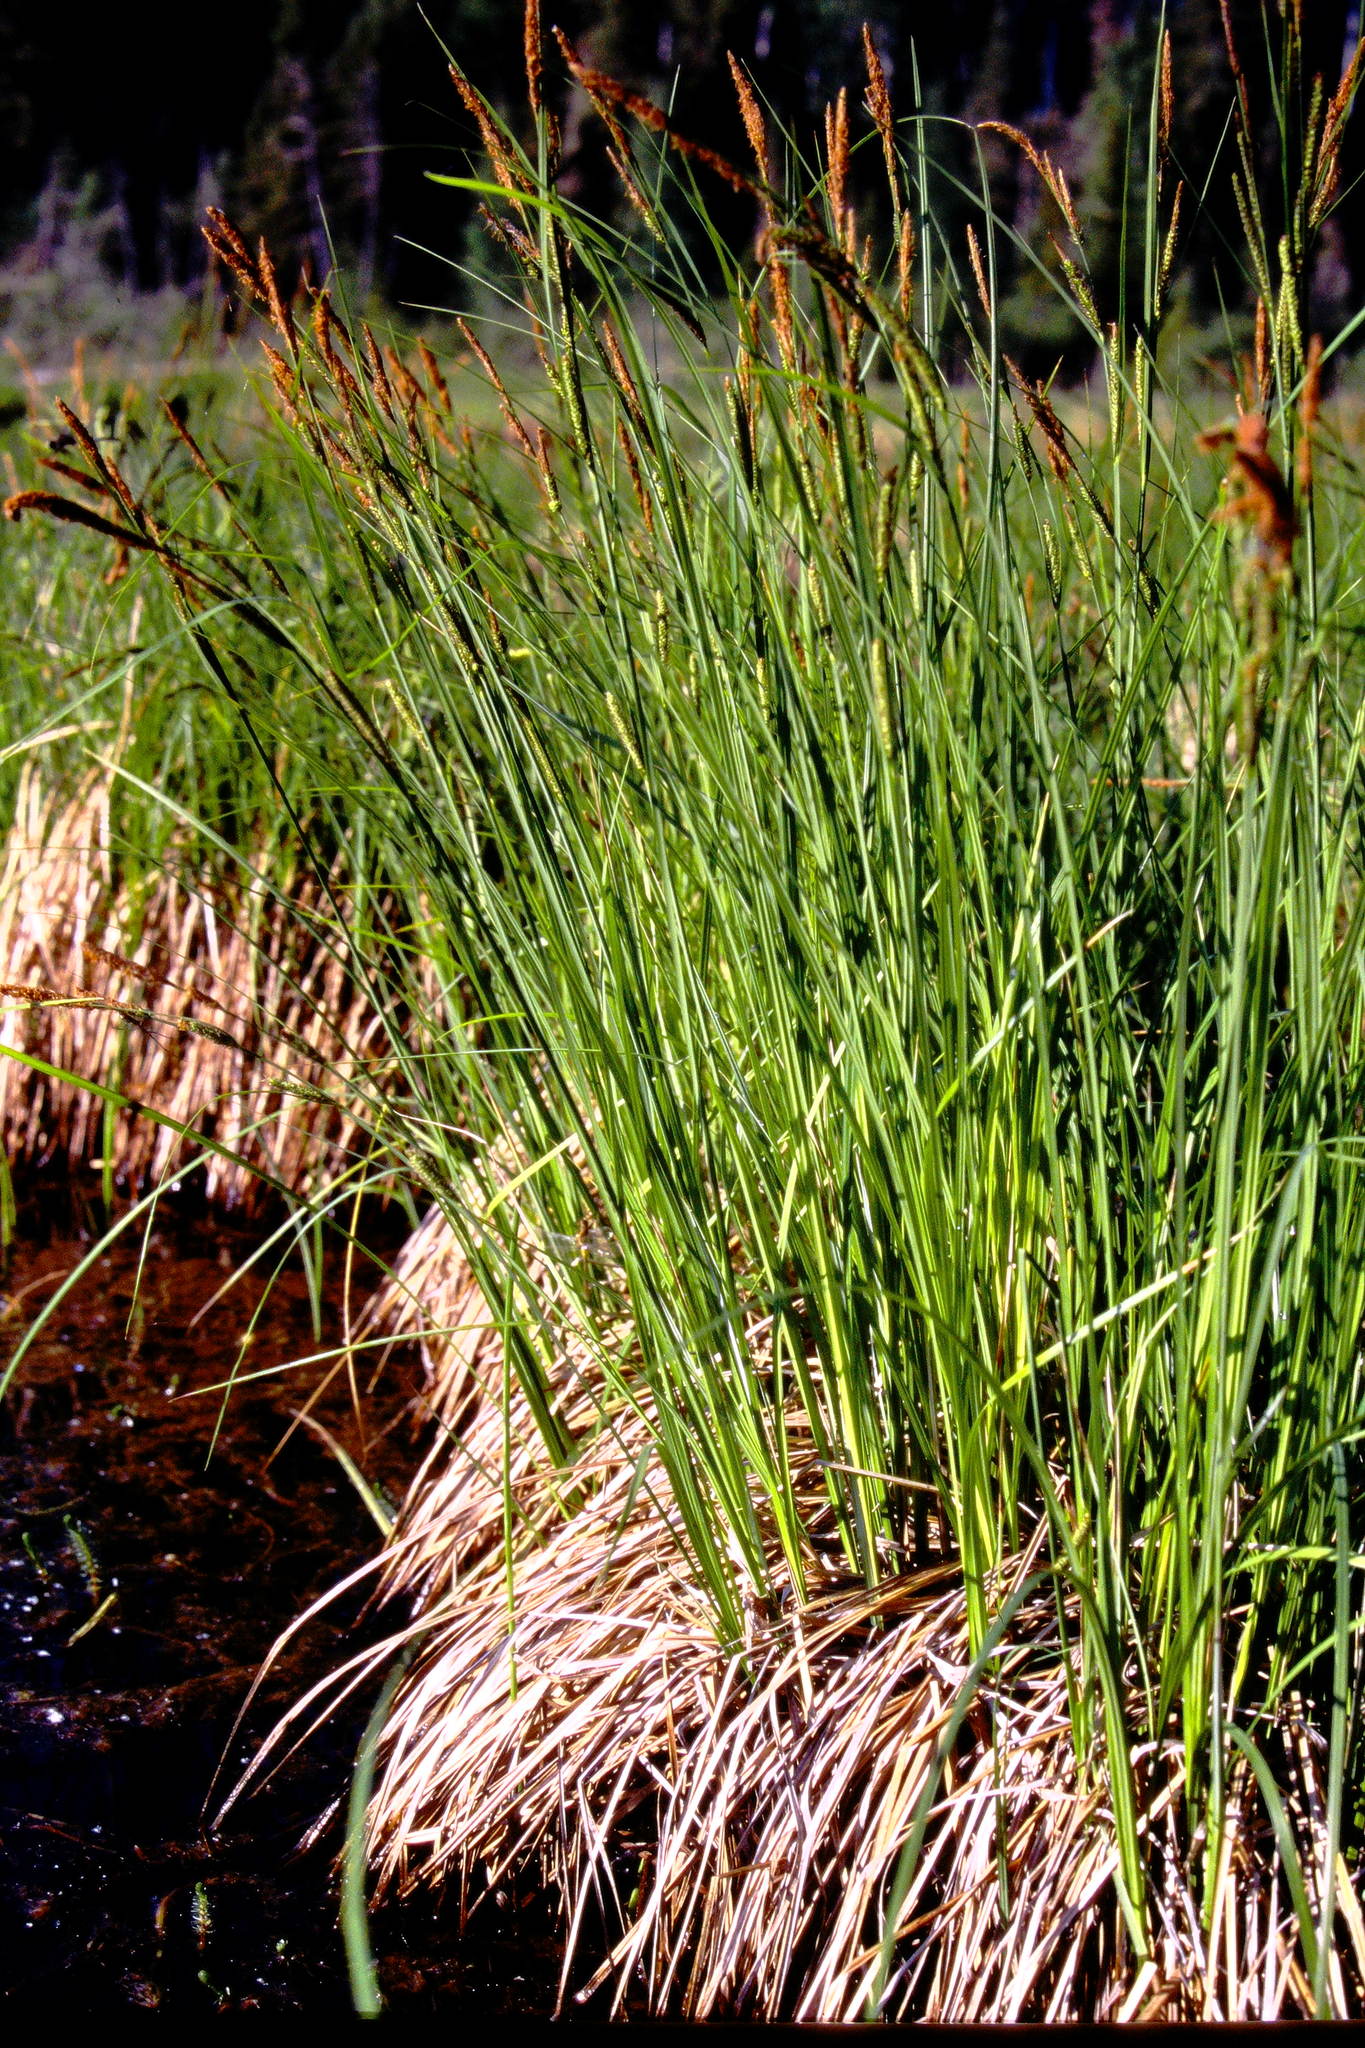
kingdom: Plantae
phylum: Tracheophyta
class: Liliopsida
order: Poales
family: Cyperaceae
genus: Carex
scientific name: Carex aquatilis
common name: Water sedge
